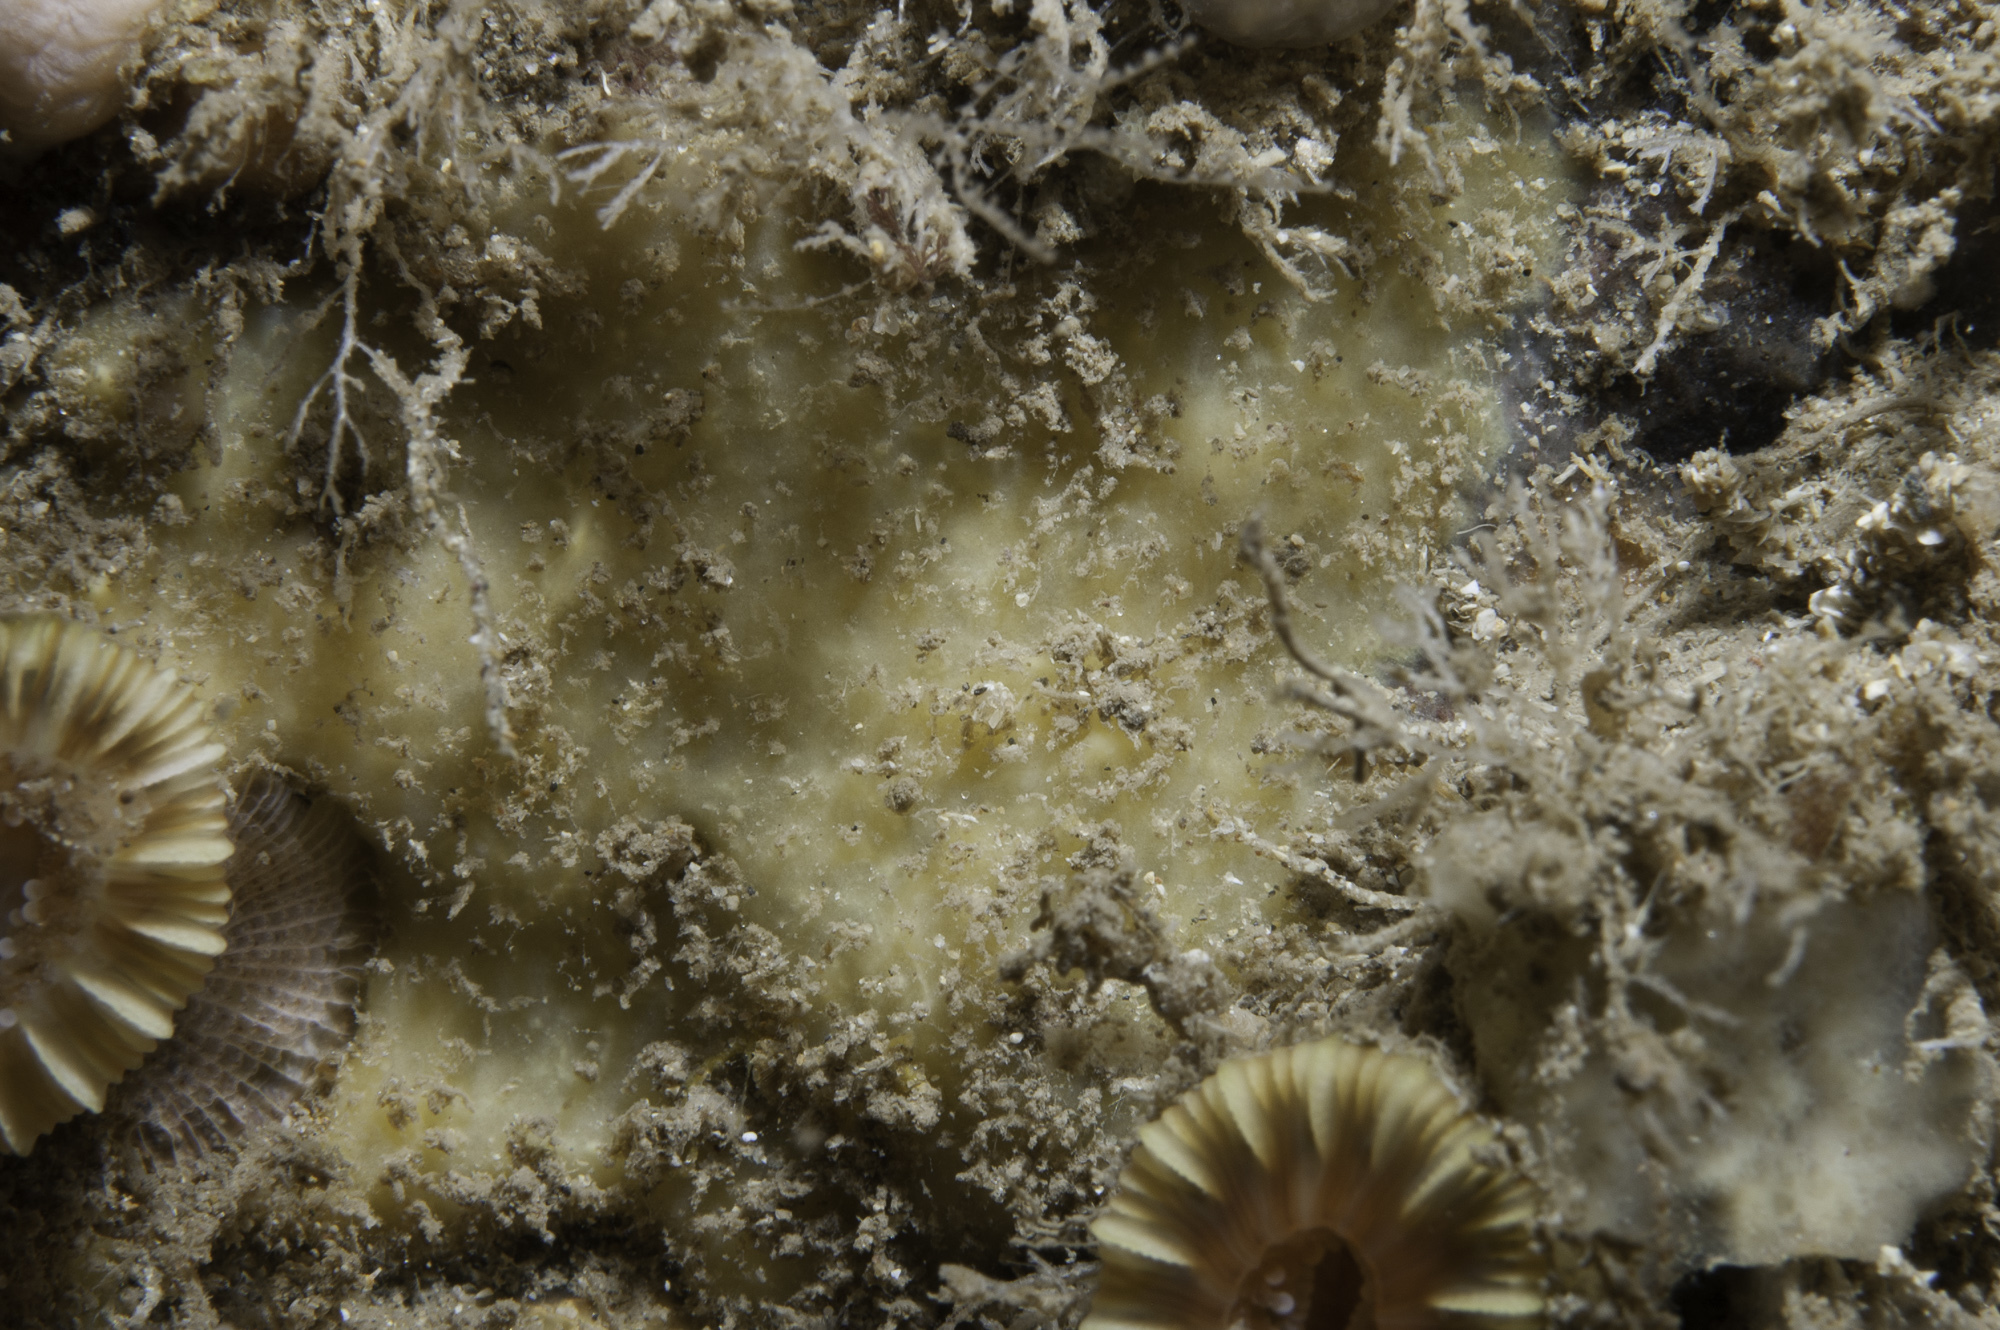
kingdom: Animalia
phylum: Porifera
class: Demospongiae
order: Axinellida
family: Stelligeridae
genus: Paratimea
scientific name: Paratimea loennbergi
